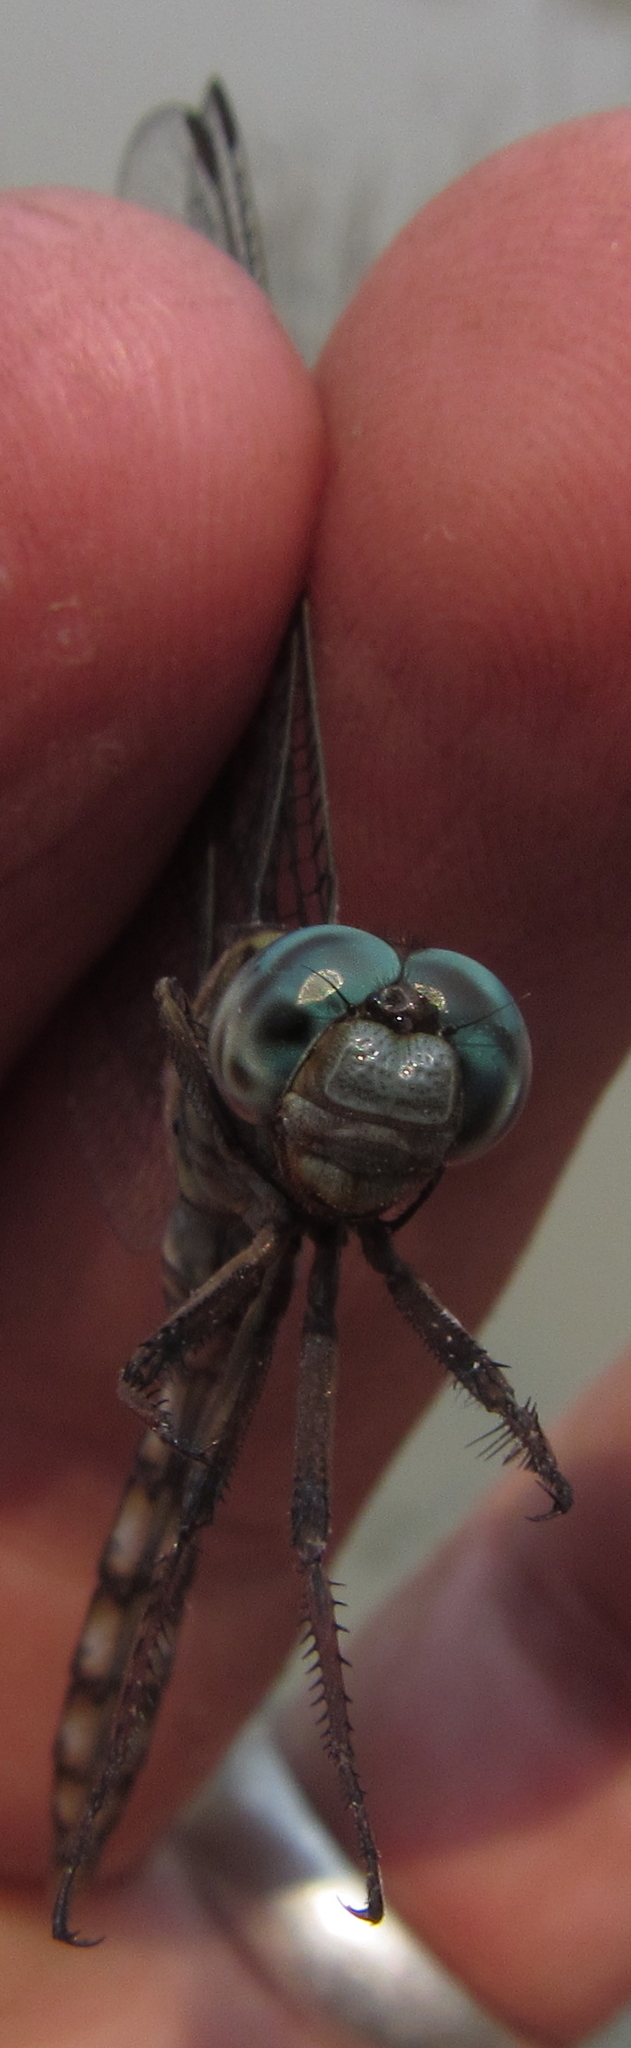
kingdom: Animalia
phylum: Arthropoda
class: Insecta
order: Odonata
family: Libellulidae
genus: Orthetrum
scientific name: Orthetrum stemmale
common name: Bold skimmer
